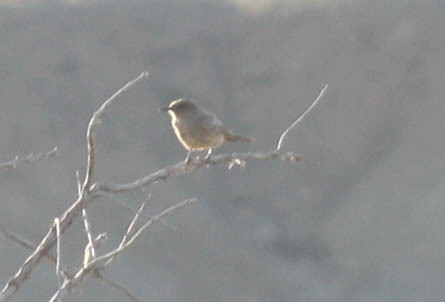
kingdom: Animalia
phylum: Chordata
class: Aves
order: Passeriformes
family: Tyrannidae
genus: Sayornis
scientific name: Sayornis saya
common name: Say's phoebe
